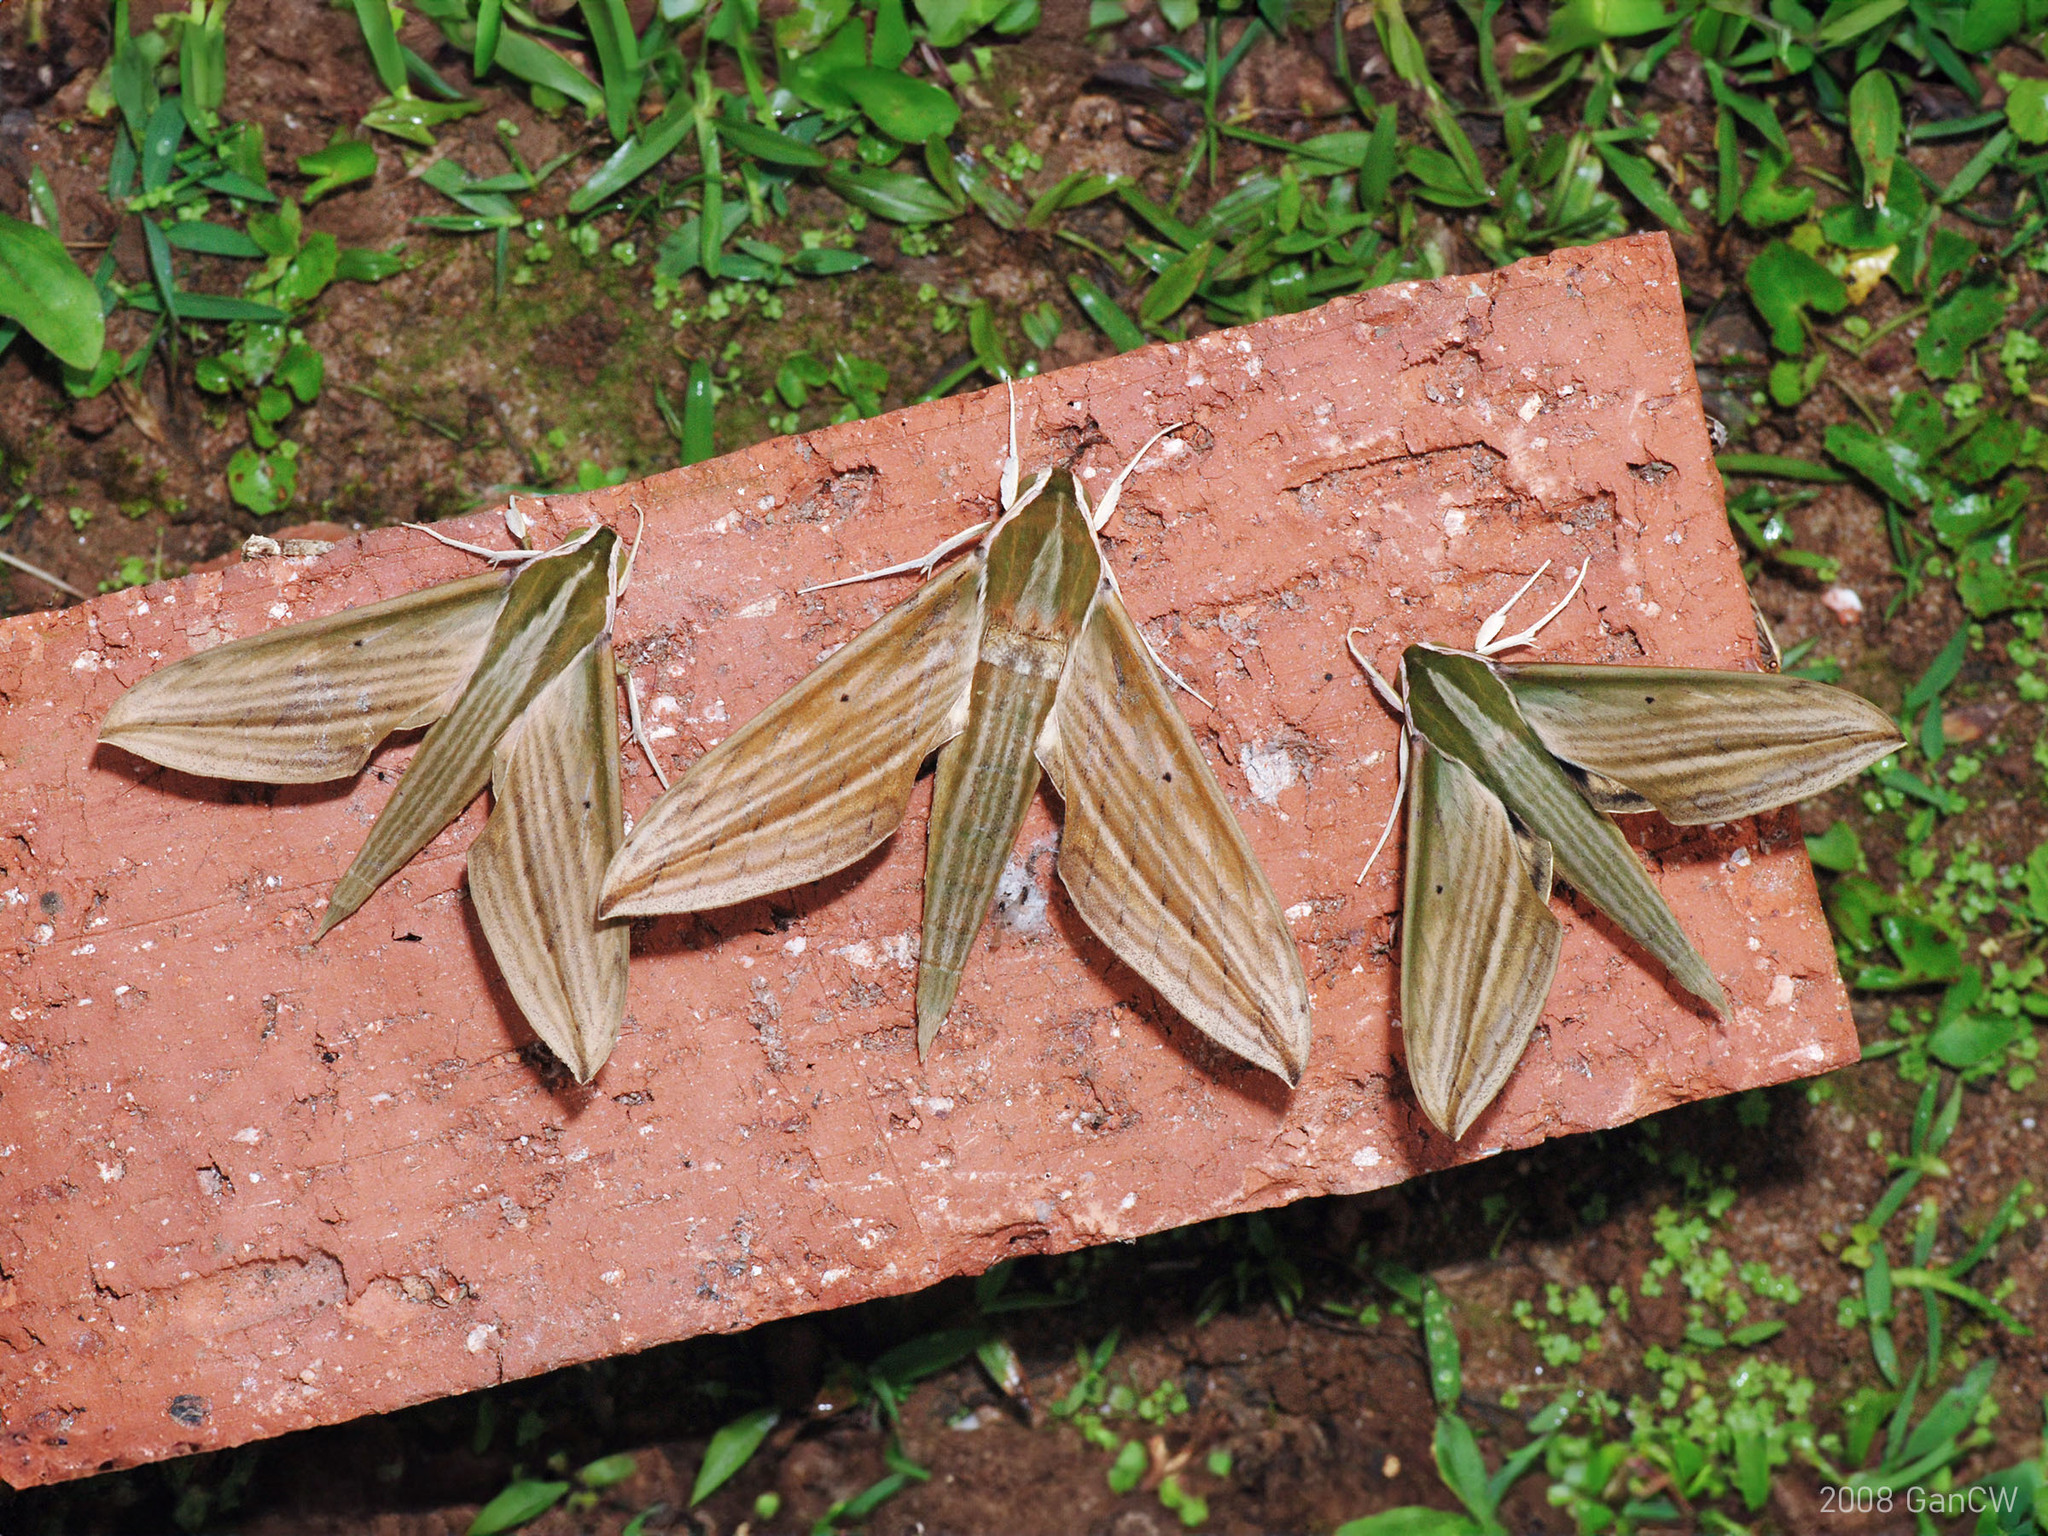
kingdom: Animalia
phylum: Arthropoda
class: Insecta
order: Lepidoptera
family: Sphingidae
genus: Cechetra
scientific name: Cechetra lineosa
